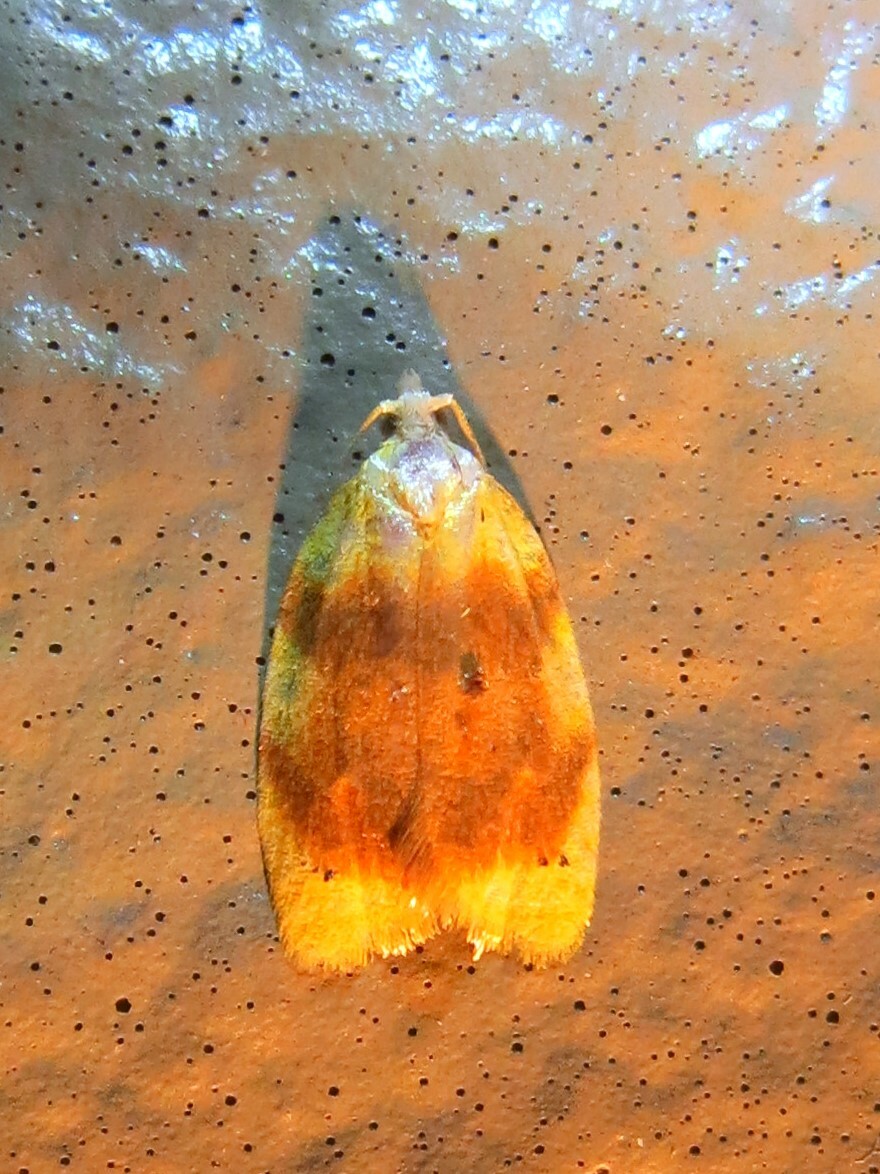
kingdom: Animalia
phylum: Arthropoda
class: Insecta
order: Lepidoptera
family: Tortricidae
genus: Acleris
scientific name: Acleris semipurpurana
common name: Oak leaftier moth
